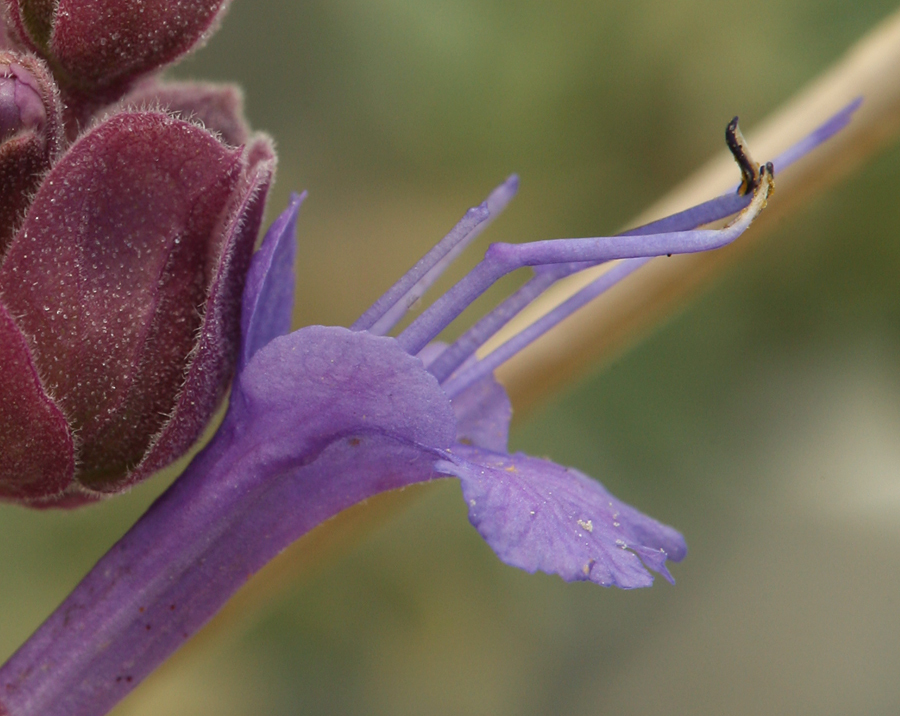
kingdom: Plantae
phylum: Tracheophyta
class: Magnoliopsida
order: Lamiales
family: Lamiaceae
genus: Salvia
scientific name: Salvia pachyphylla
